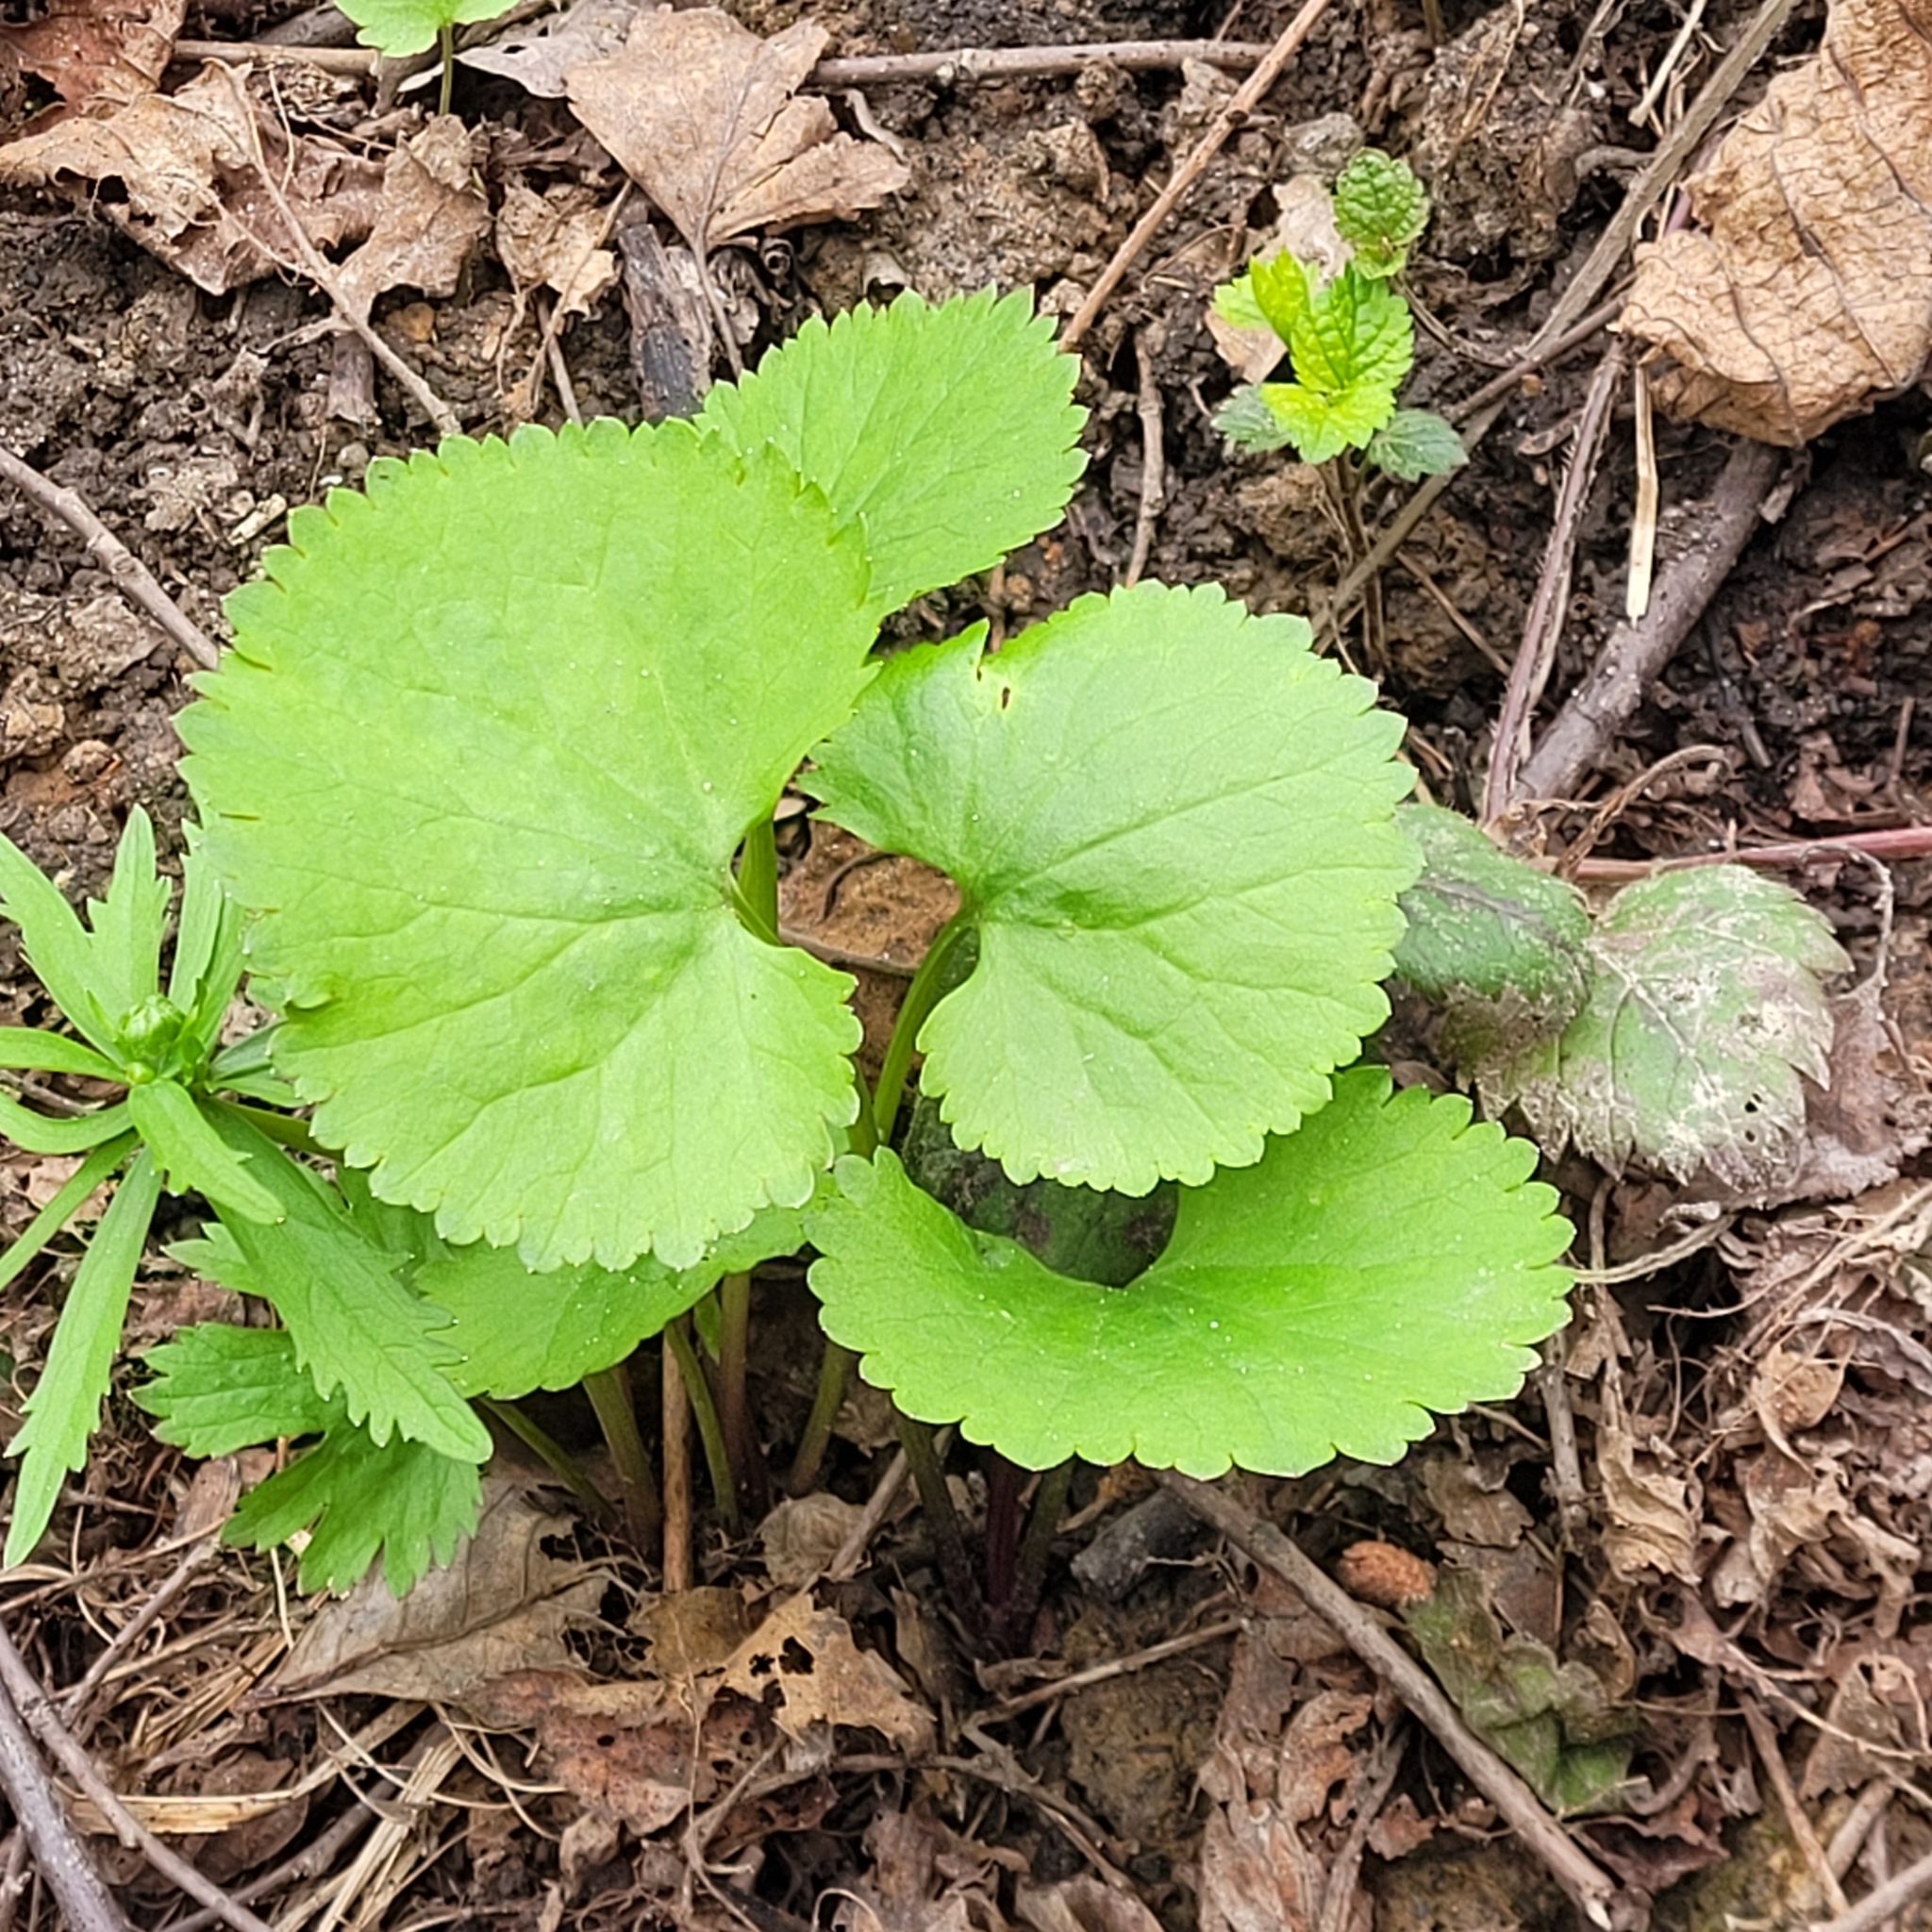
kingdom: Plantae
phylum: Tracheophyta
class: Magnoliopsida
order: Ranunculales
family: Ranunculaceae
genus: Ranunculus
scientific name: Ranunculus cassubicus
